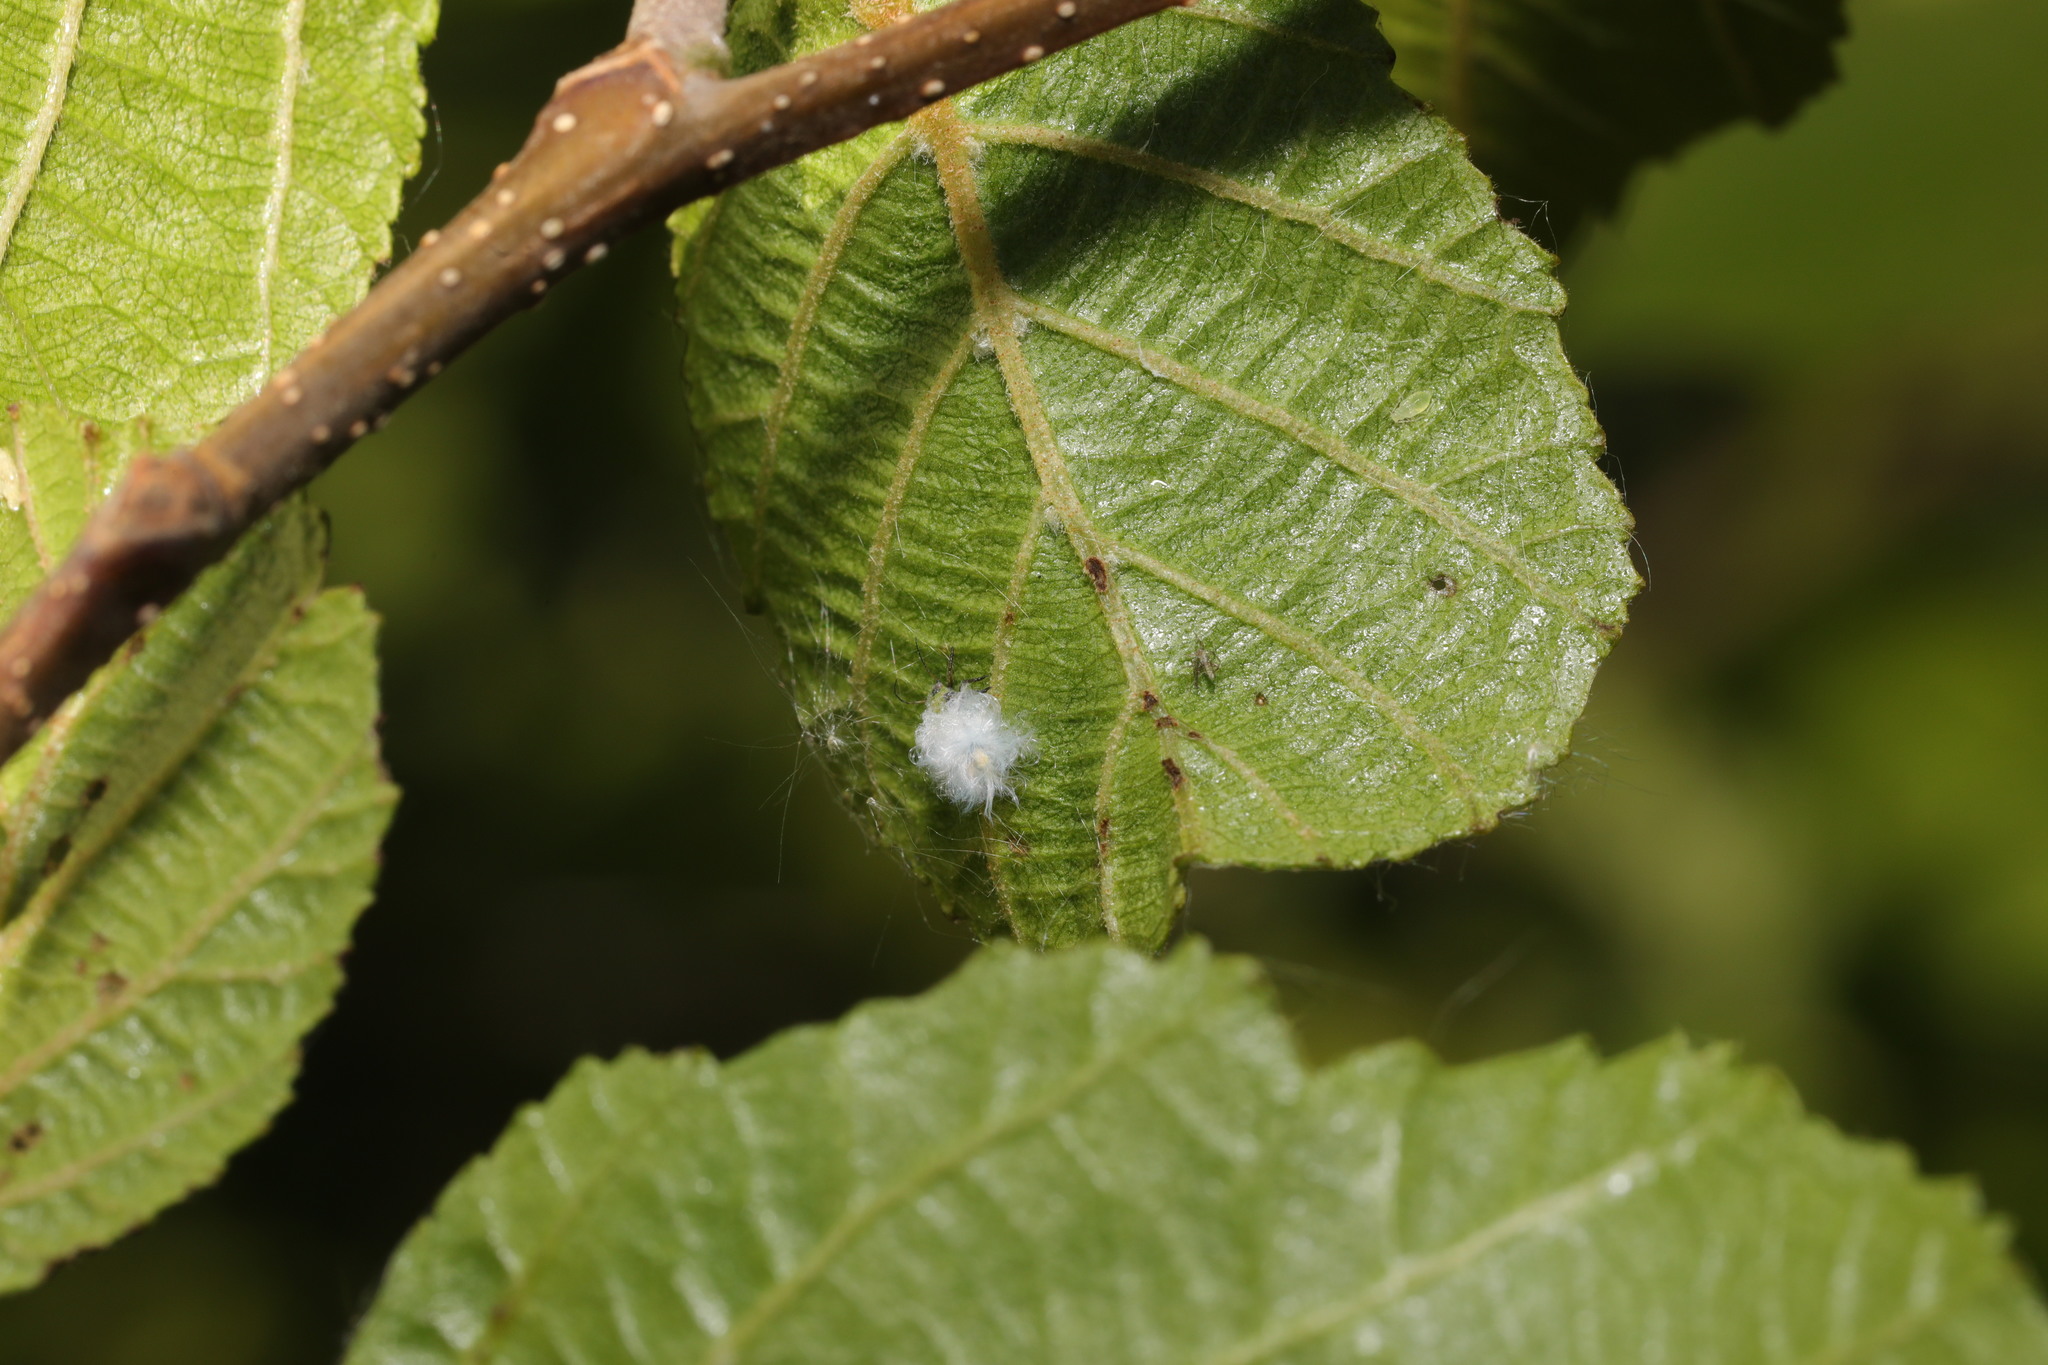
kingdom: Animalia
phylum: Arthropoda
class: Insecta
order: Hemiptera
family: Psyllidae
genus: Psylla
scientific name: Psylla alni
